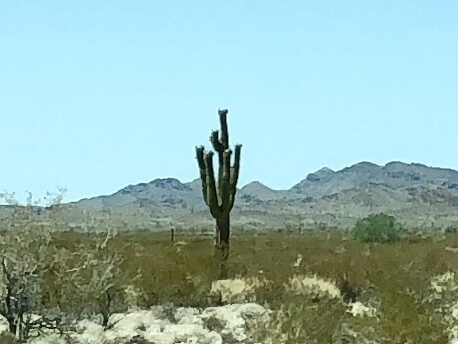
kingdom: Plantae
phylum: Tracheophyta
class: Magnoliopsida
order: Caryophyllales
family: Cactaceae
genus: Carnegiea
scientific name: Carnegiea gigantea
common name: Saguaro
